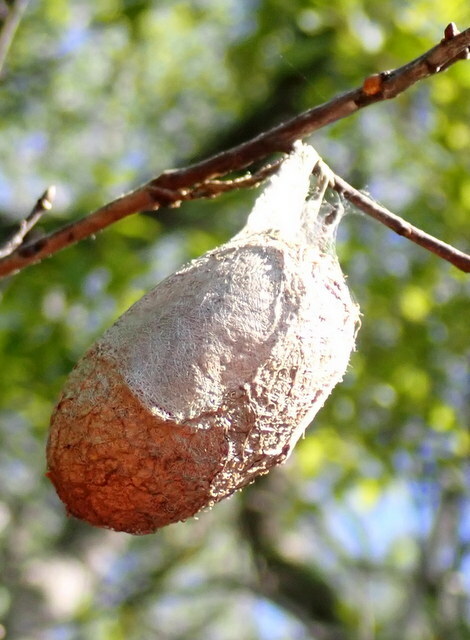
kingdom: Animalia
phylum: Arthropoda
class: Insecta
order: Lepidoptera
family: Saturniidae
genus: Antheraea
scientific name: Antheraea polyphemus
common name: Polyphemus moth
